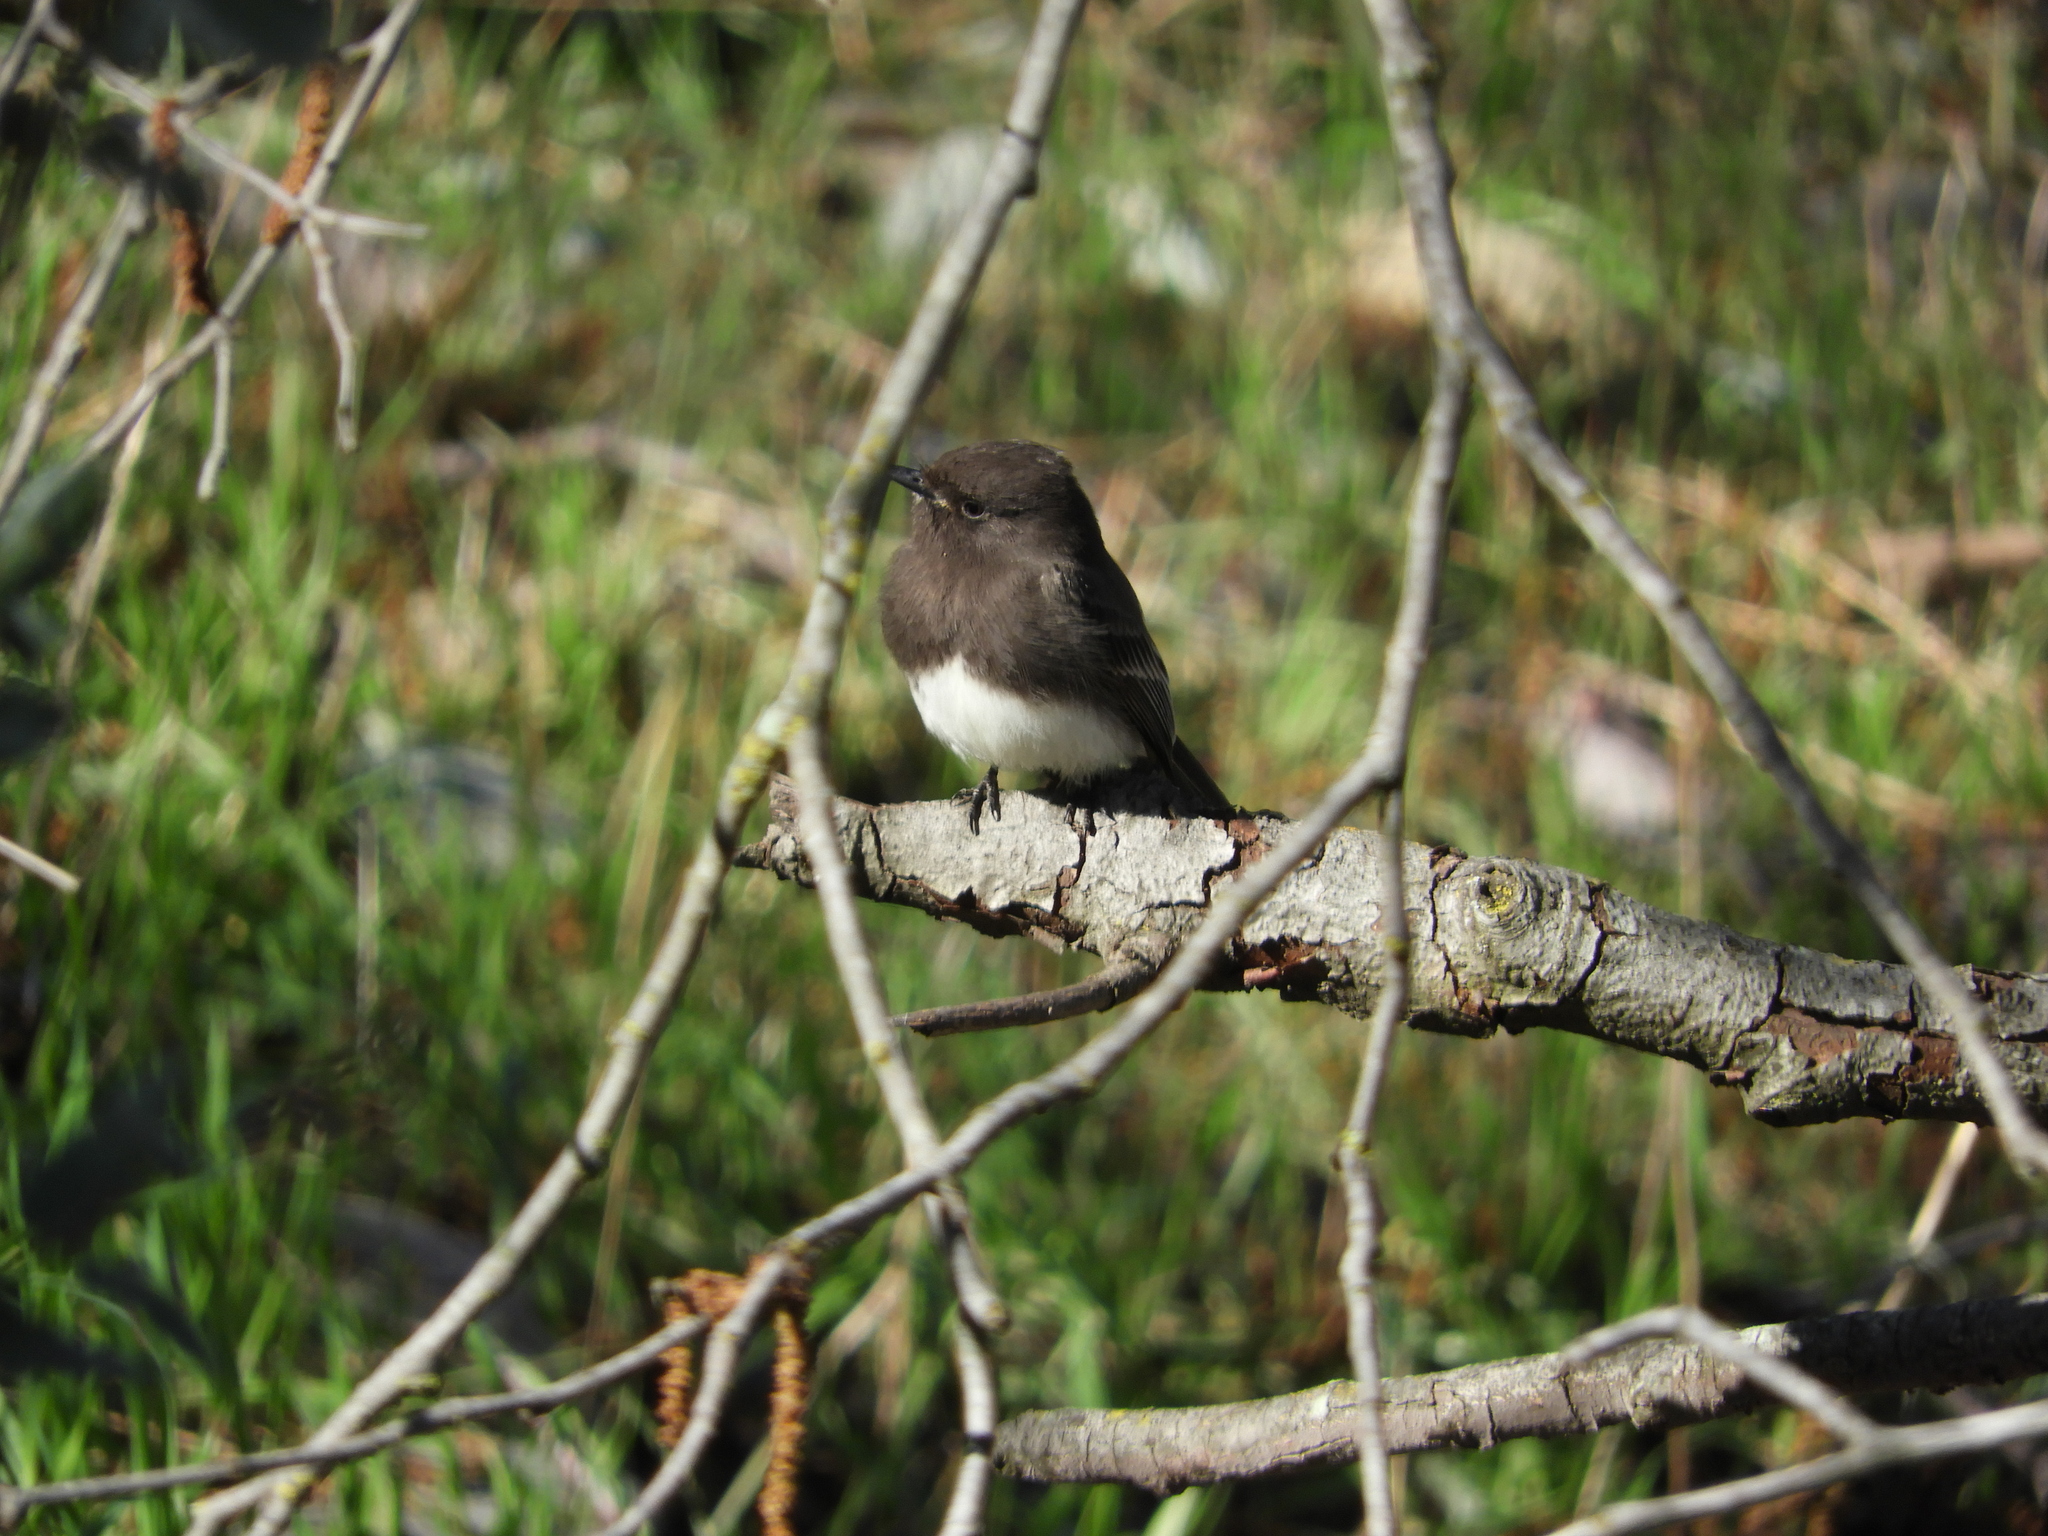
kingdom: Animalia
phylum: Chordata
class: Aves
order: Passeriformes
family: Tyrannidae
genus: Sayornis
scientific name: Sayornis nigricans
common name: Black phoebe
